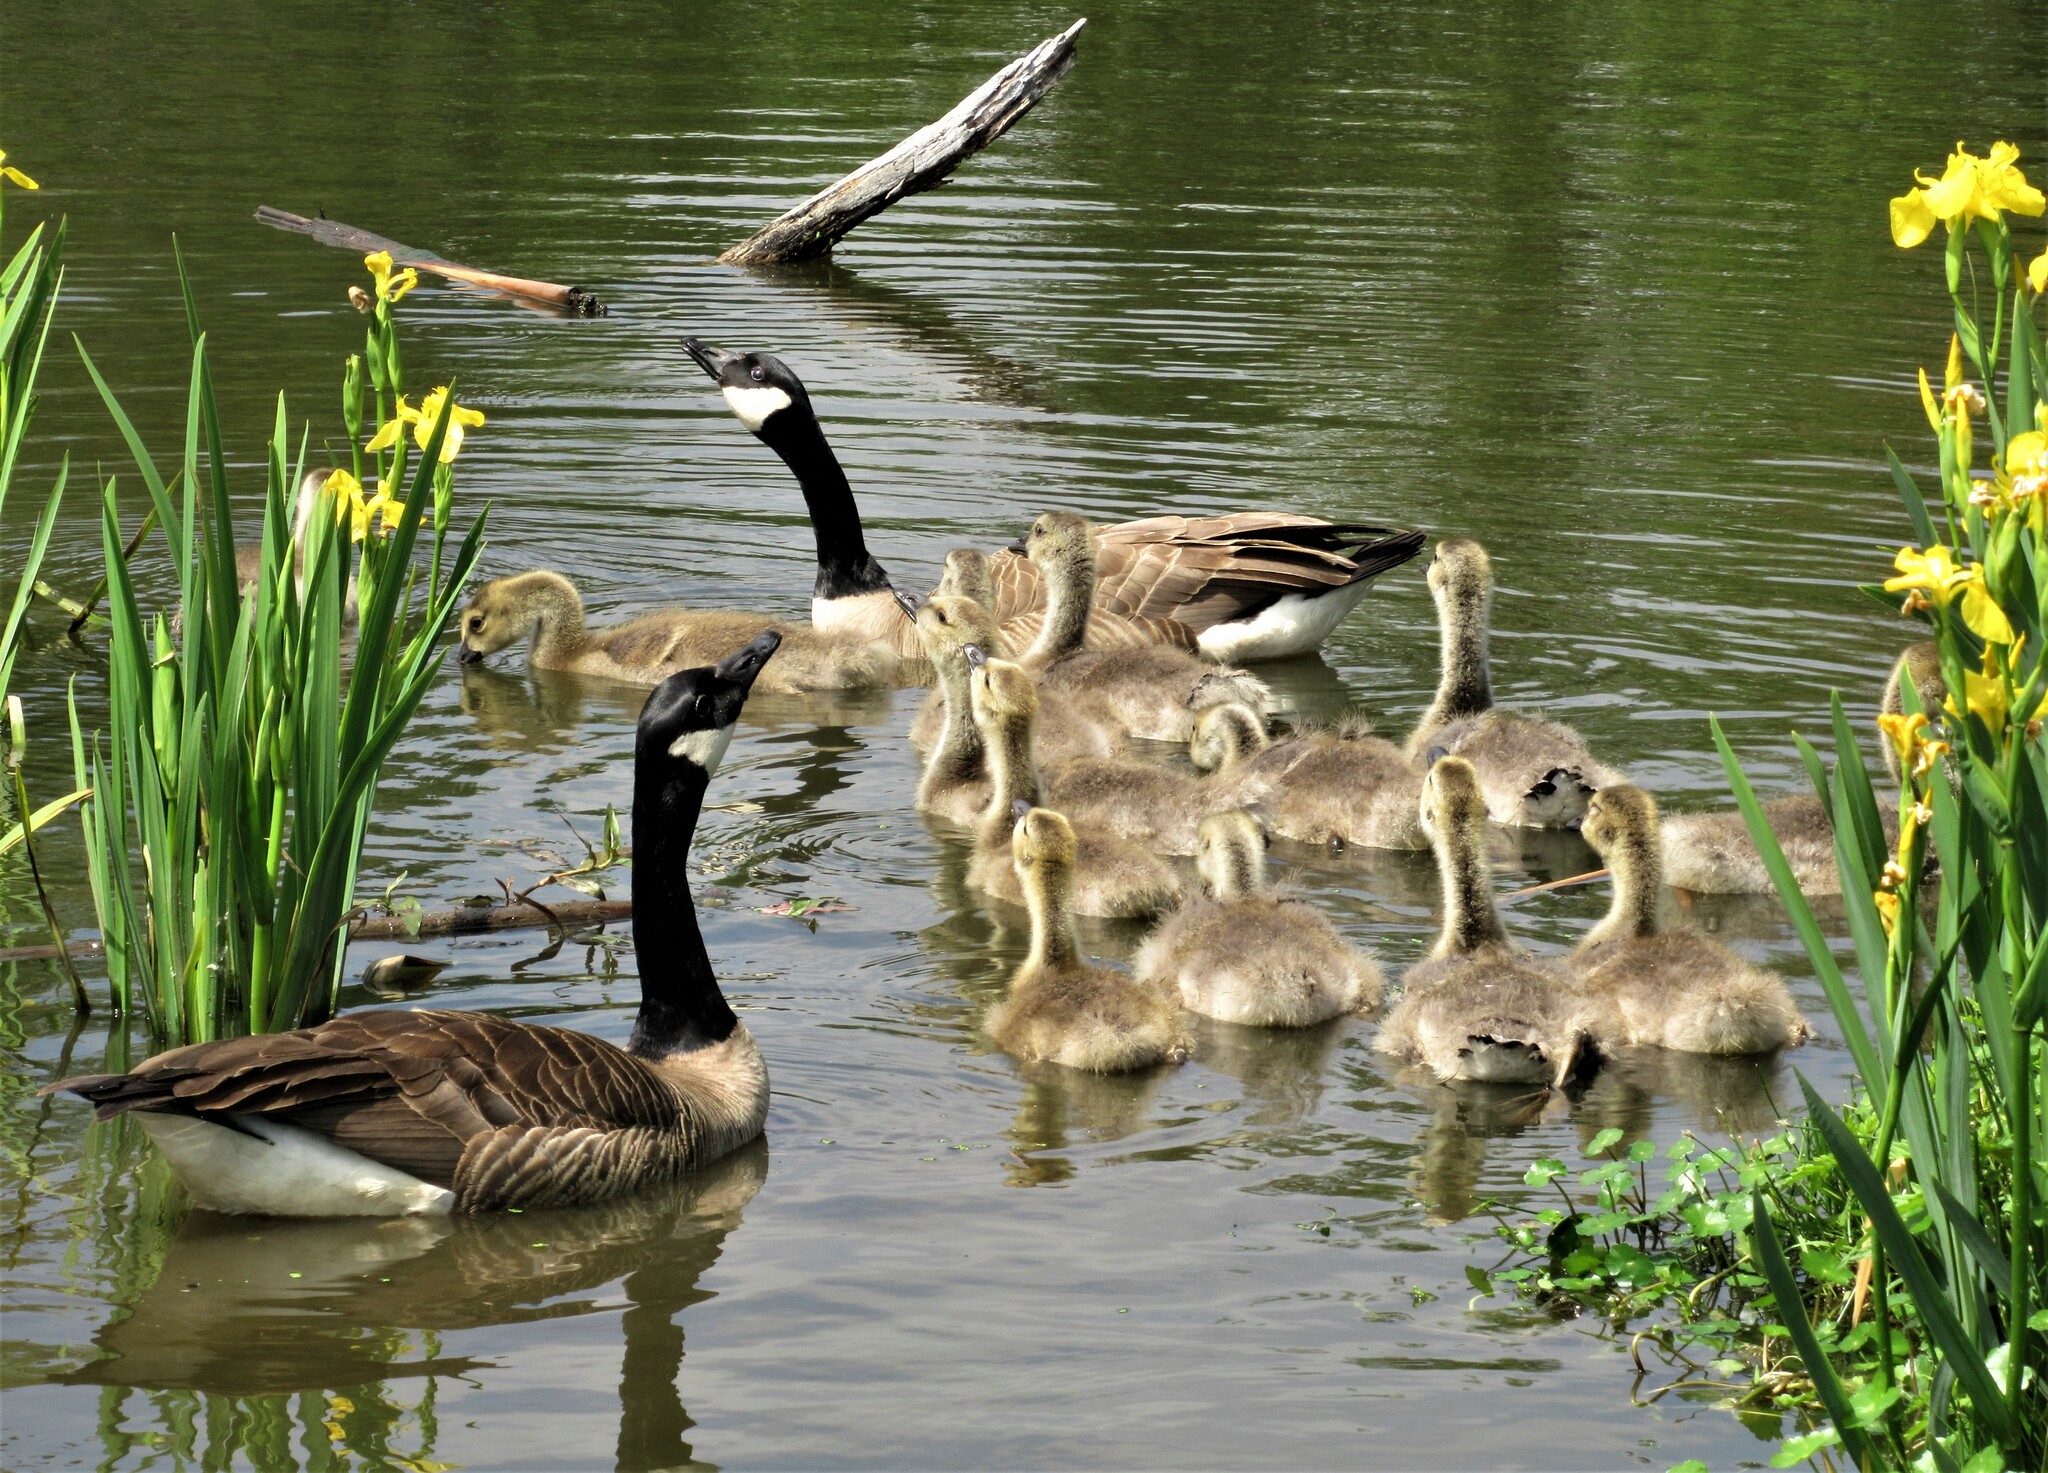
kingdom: Animalia
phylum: Chordata
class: Aves
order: Anseriformes
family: Anatidae
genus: Branta
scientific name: Branta canadensis
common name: Canada goose
